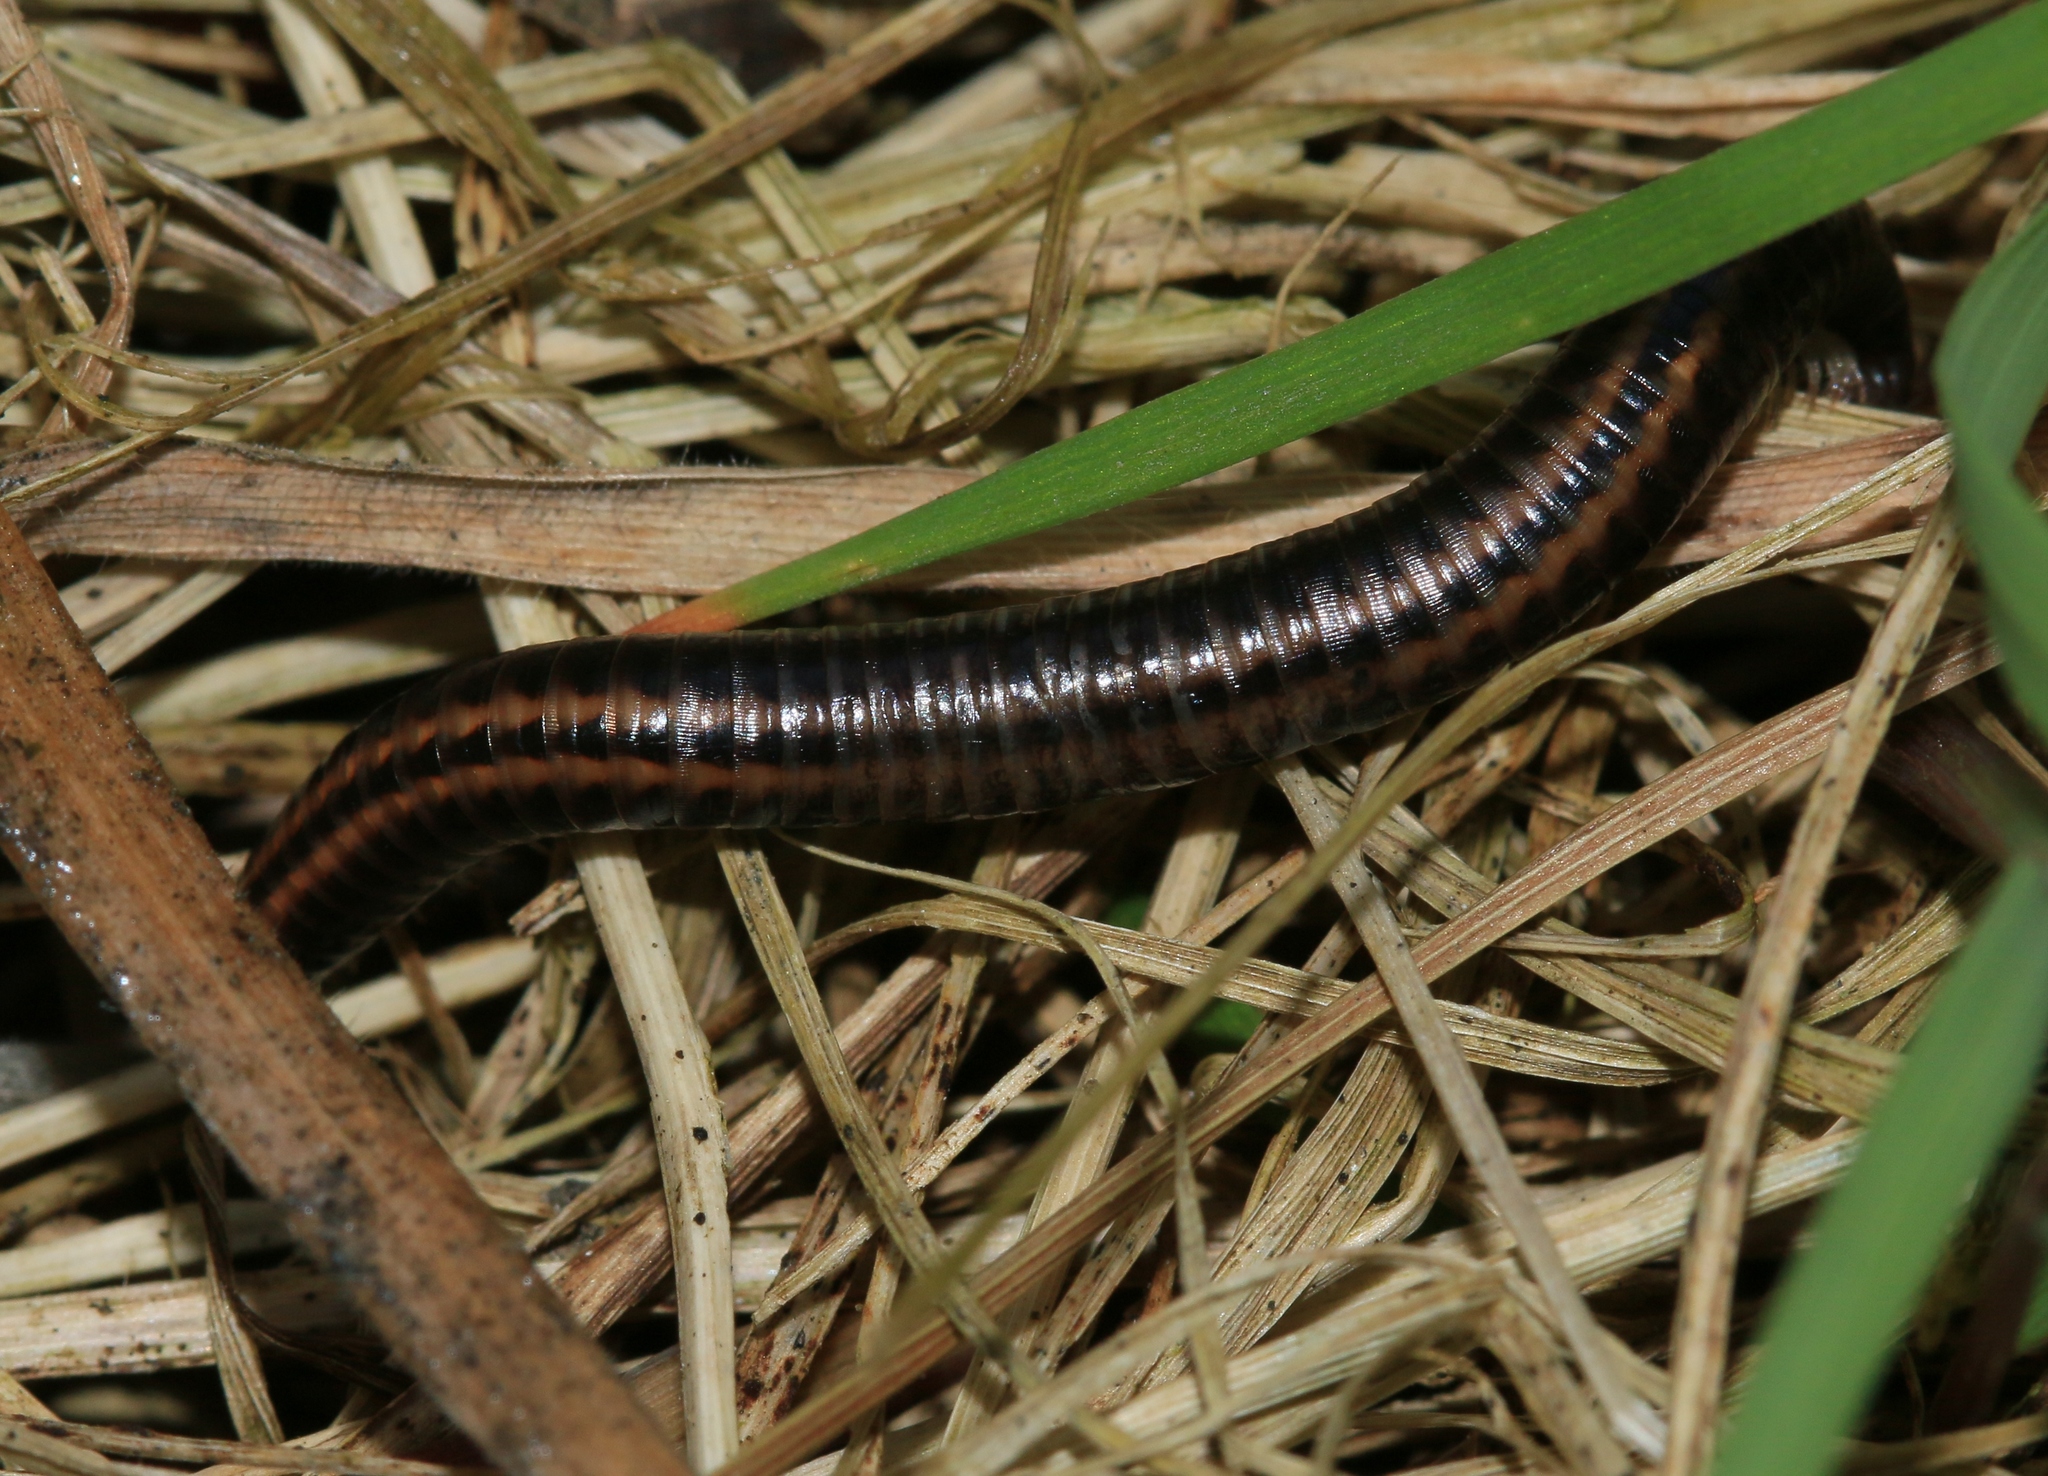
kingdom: Animalia
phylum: Arthropoda
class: Diplopoda
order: Julida
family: Julidae
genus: Ommatoiulus
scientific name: Ommatoiulus sabulosus
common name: Striped millipede
